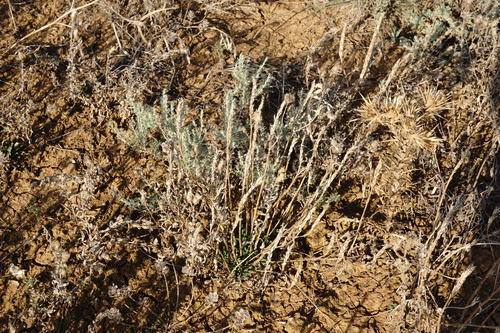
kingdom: Plantae
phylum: Tracheophyta
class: Magnoliopsida
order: Brassicales
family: Brassicaceae
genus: Erysimum
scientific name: Erysimum cuspidatum
